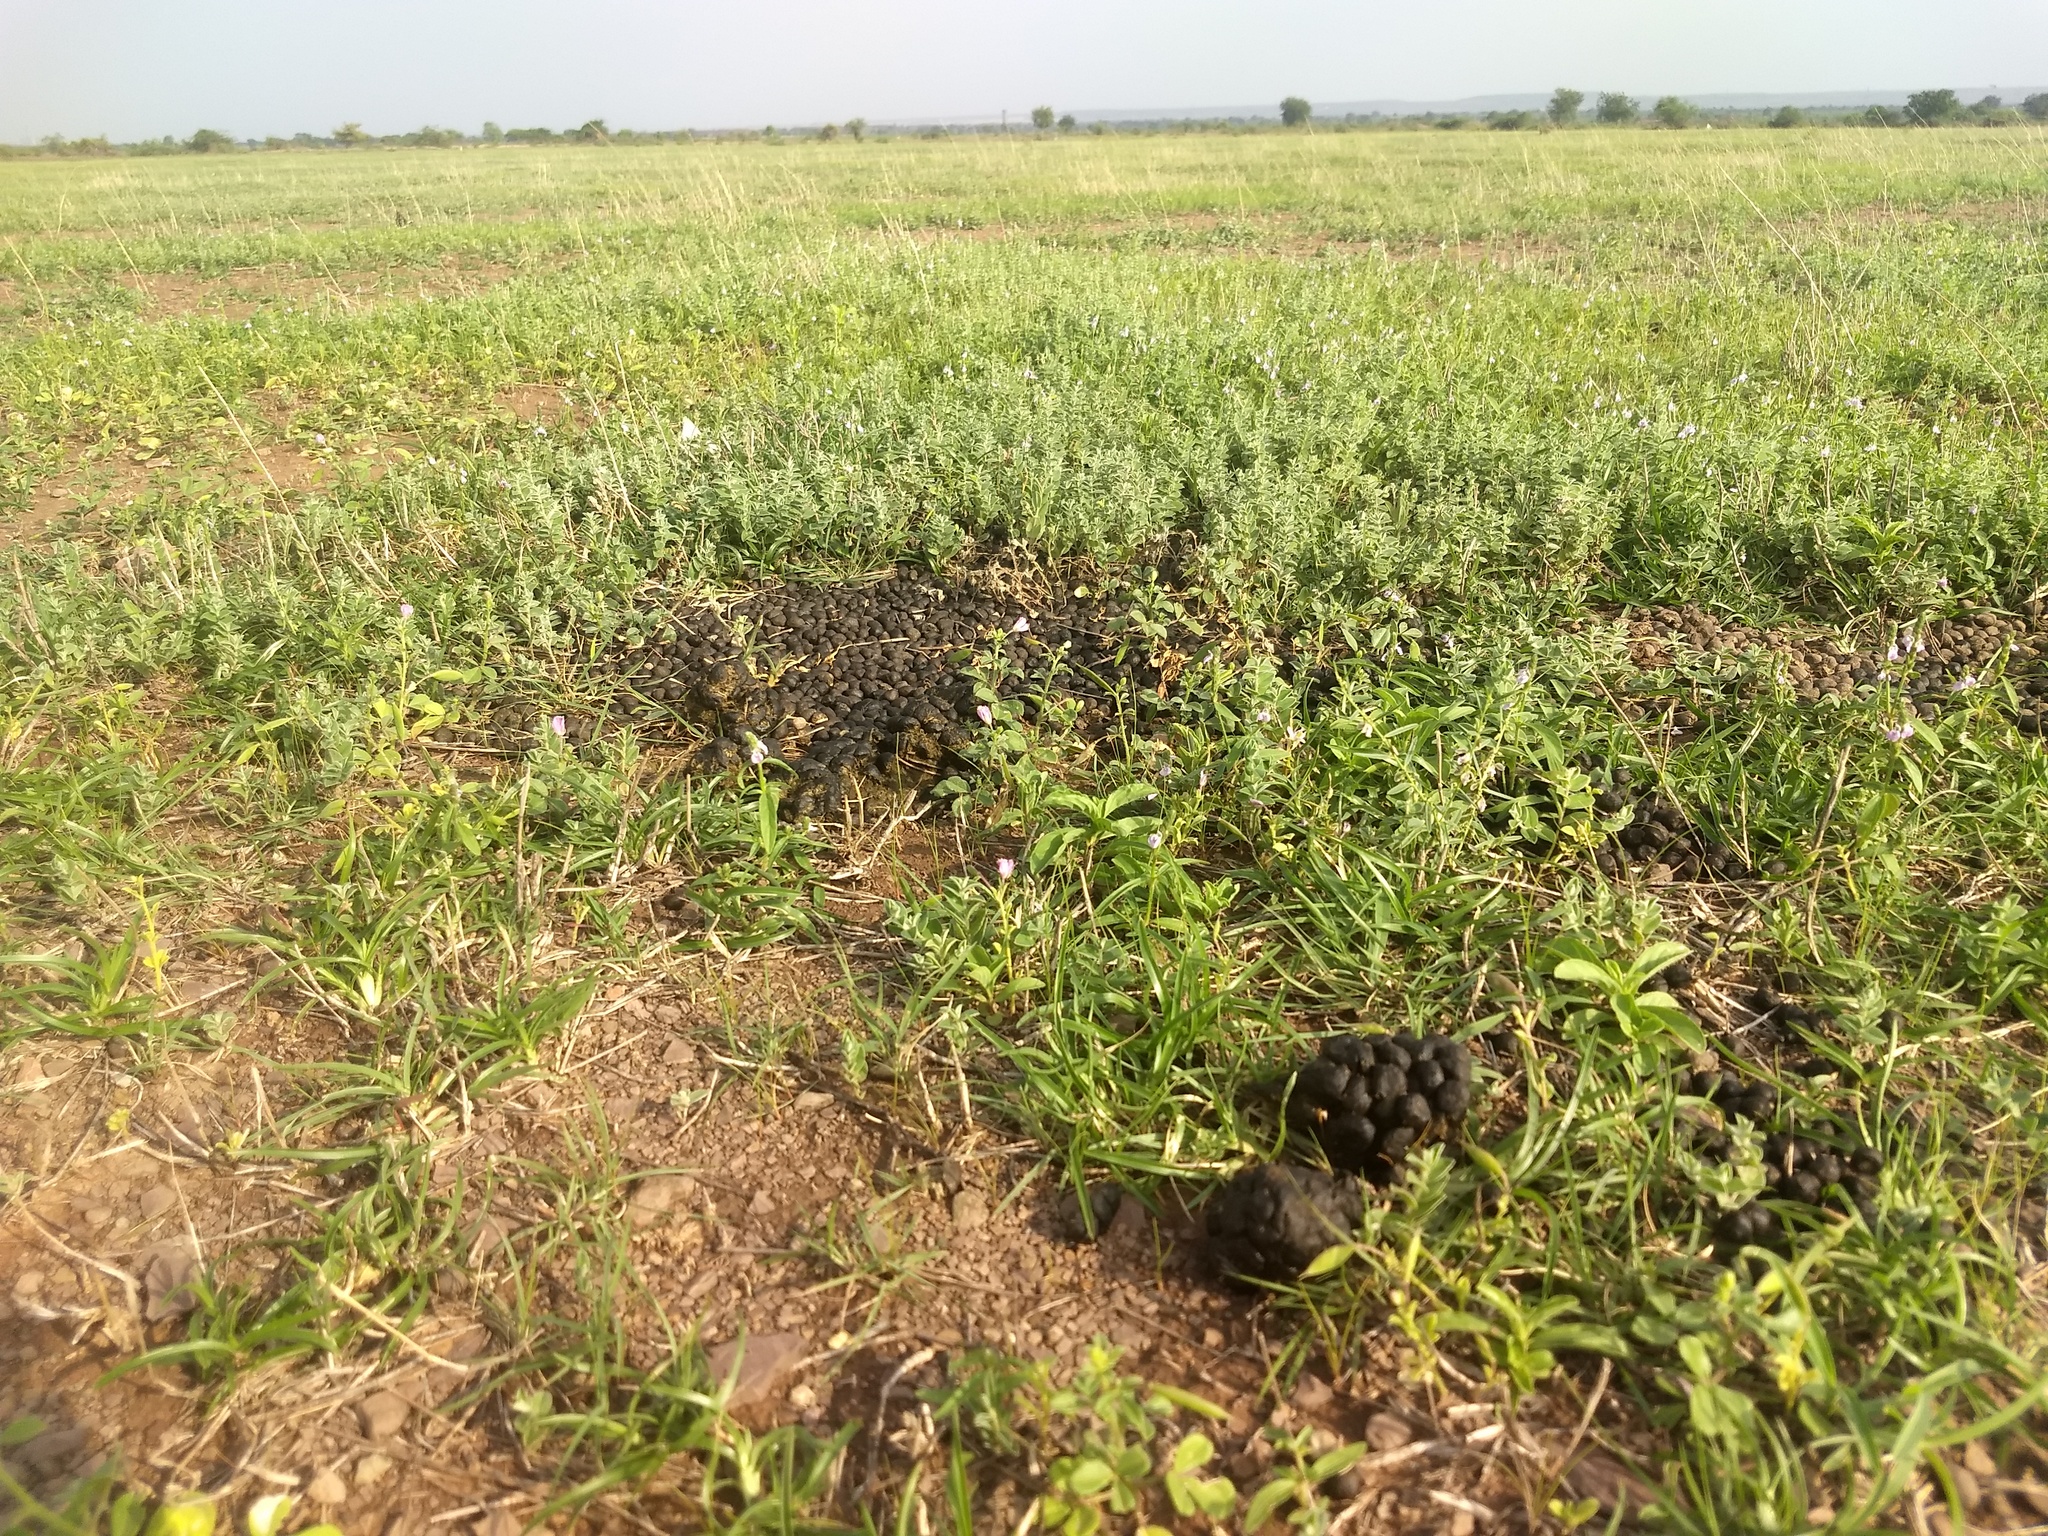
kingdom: Animalia
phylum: Chordata
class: Mammalia
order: Artiodactyla
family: Bovidae
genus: Antilope
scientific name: Antilope cervicapra
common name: Blackbuck
